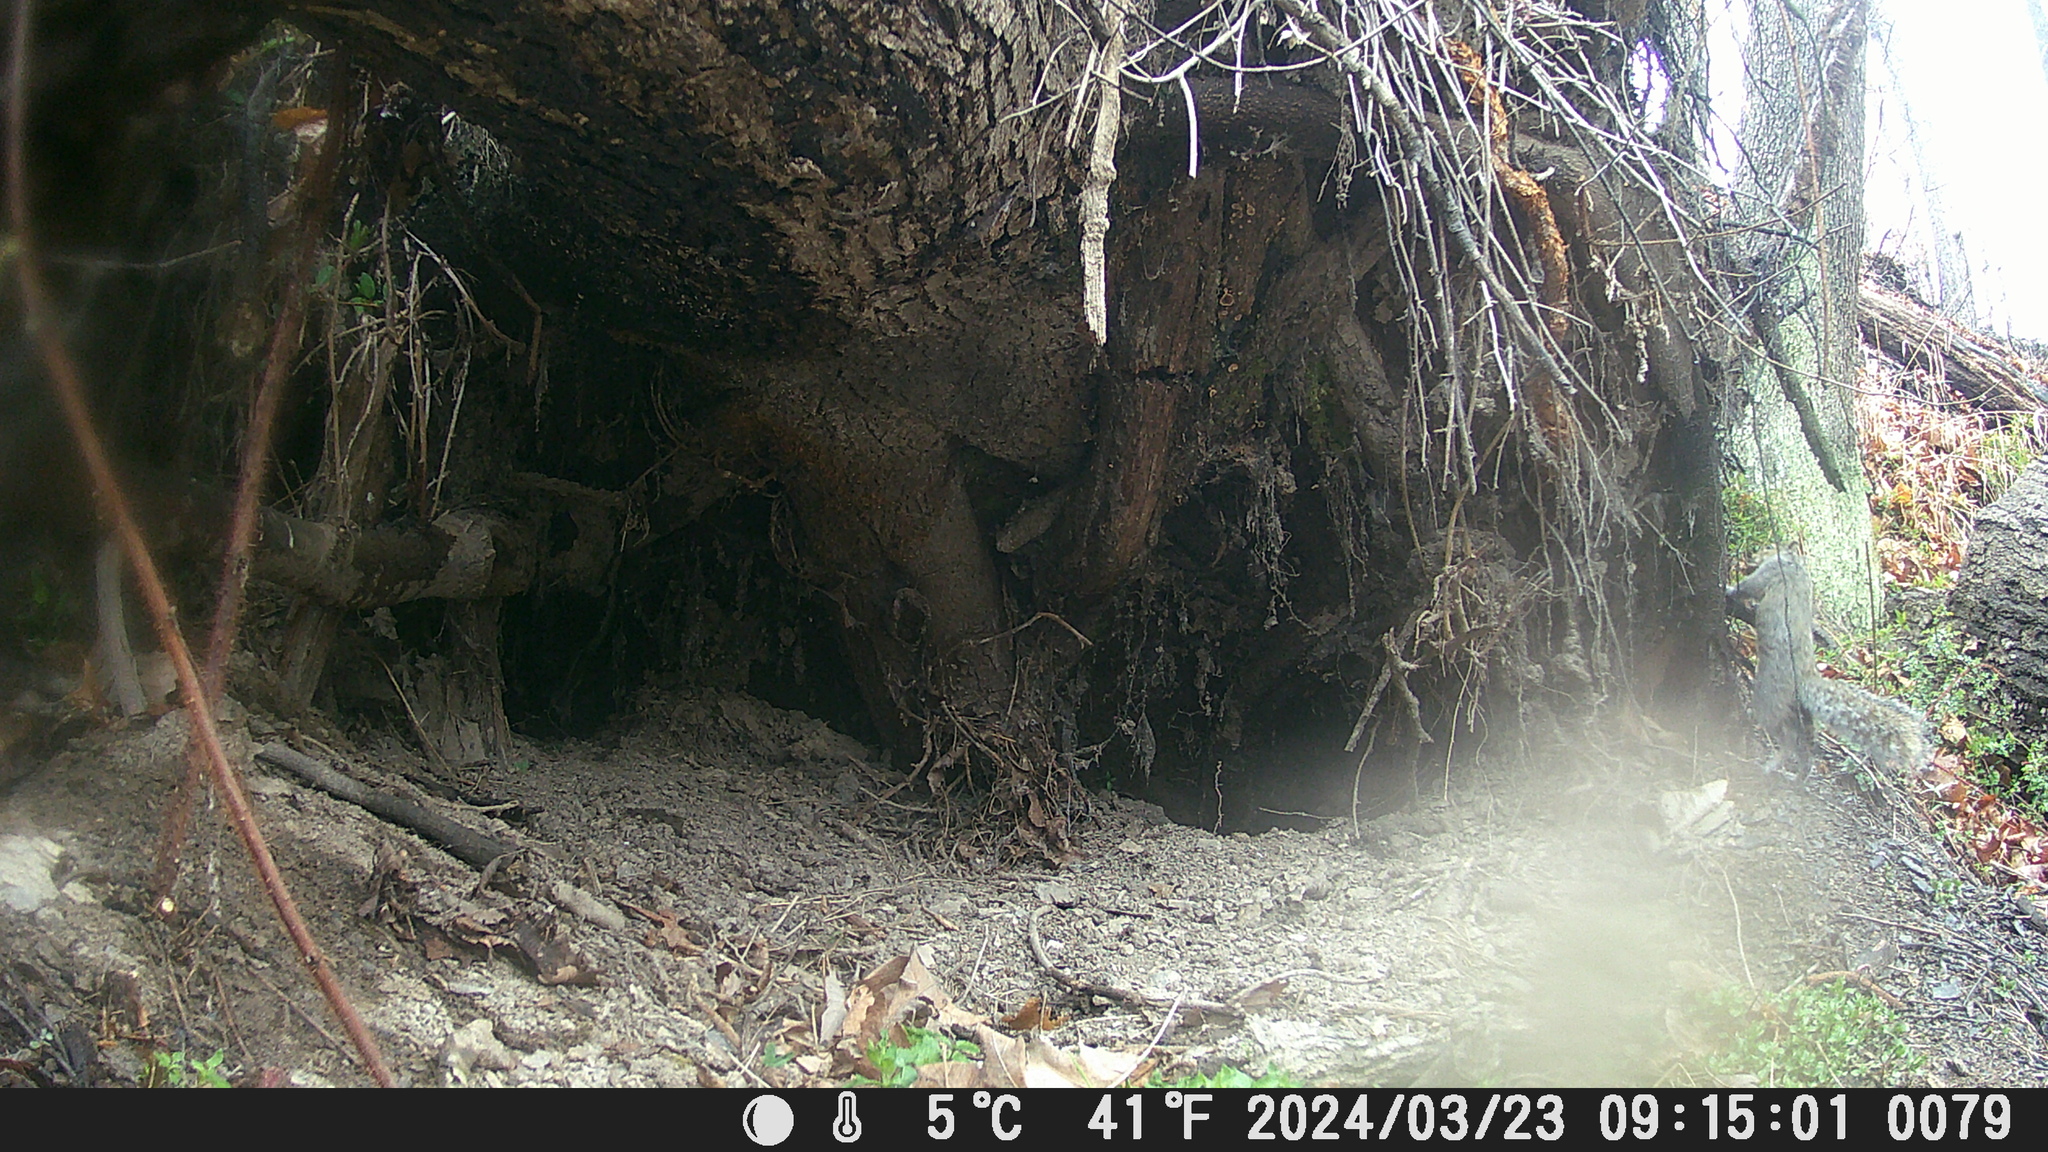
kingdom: Animalia
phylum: Chordata
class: Mammalia
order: Rodentia
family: Sciuridae
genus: Sciurus
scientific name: Sciurus carolinensis
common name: Eastern gray squirrel
